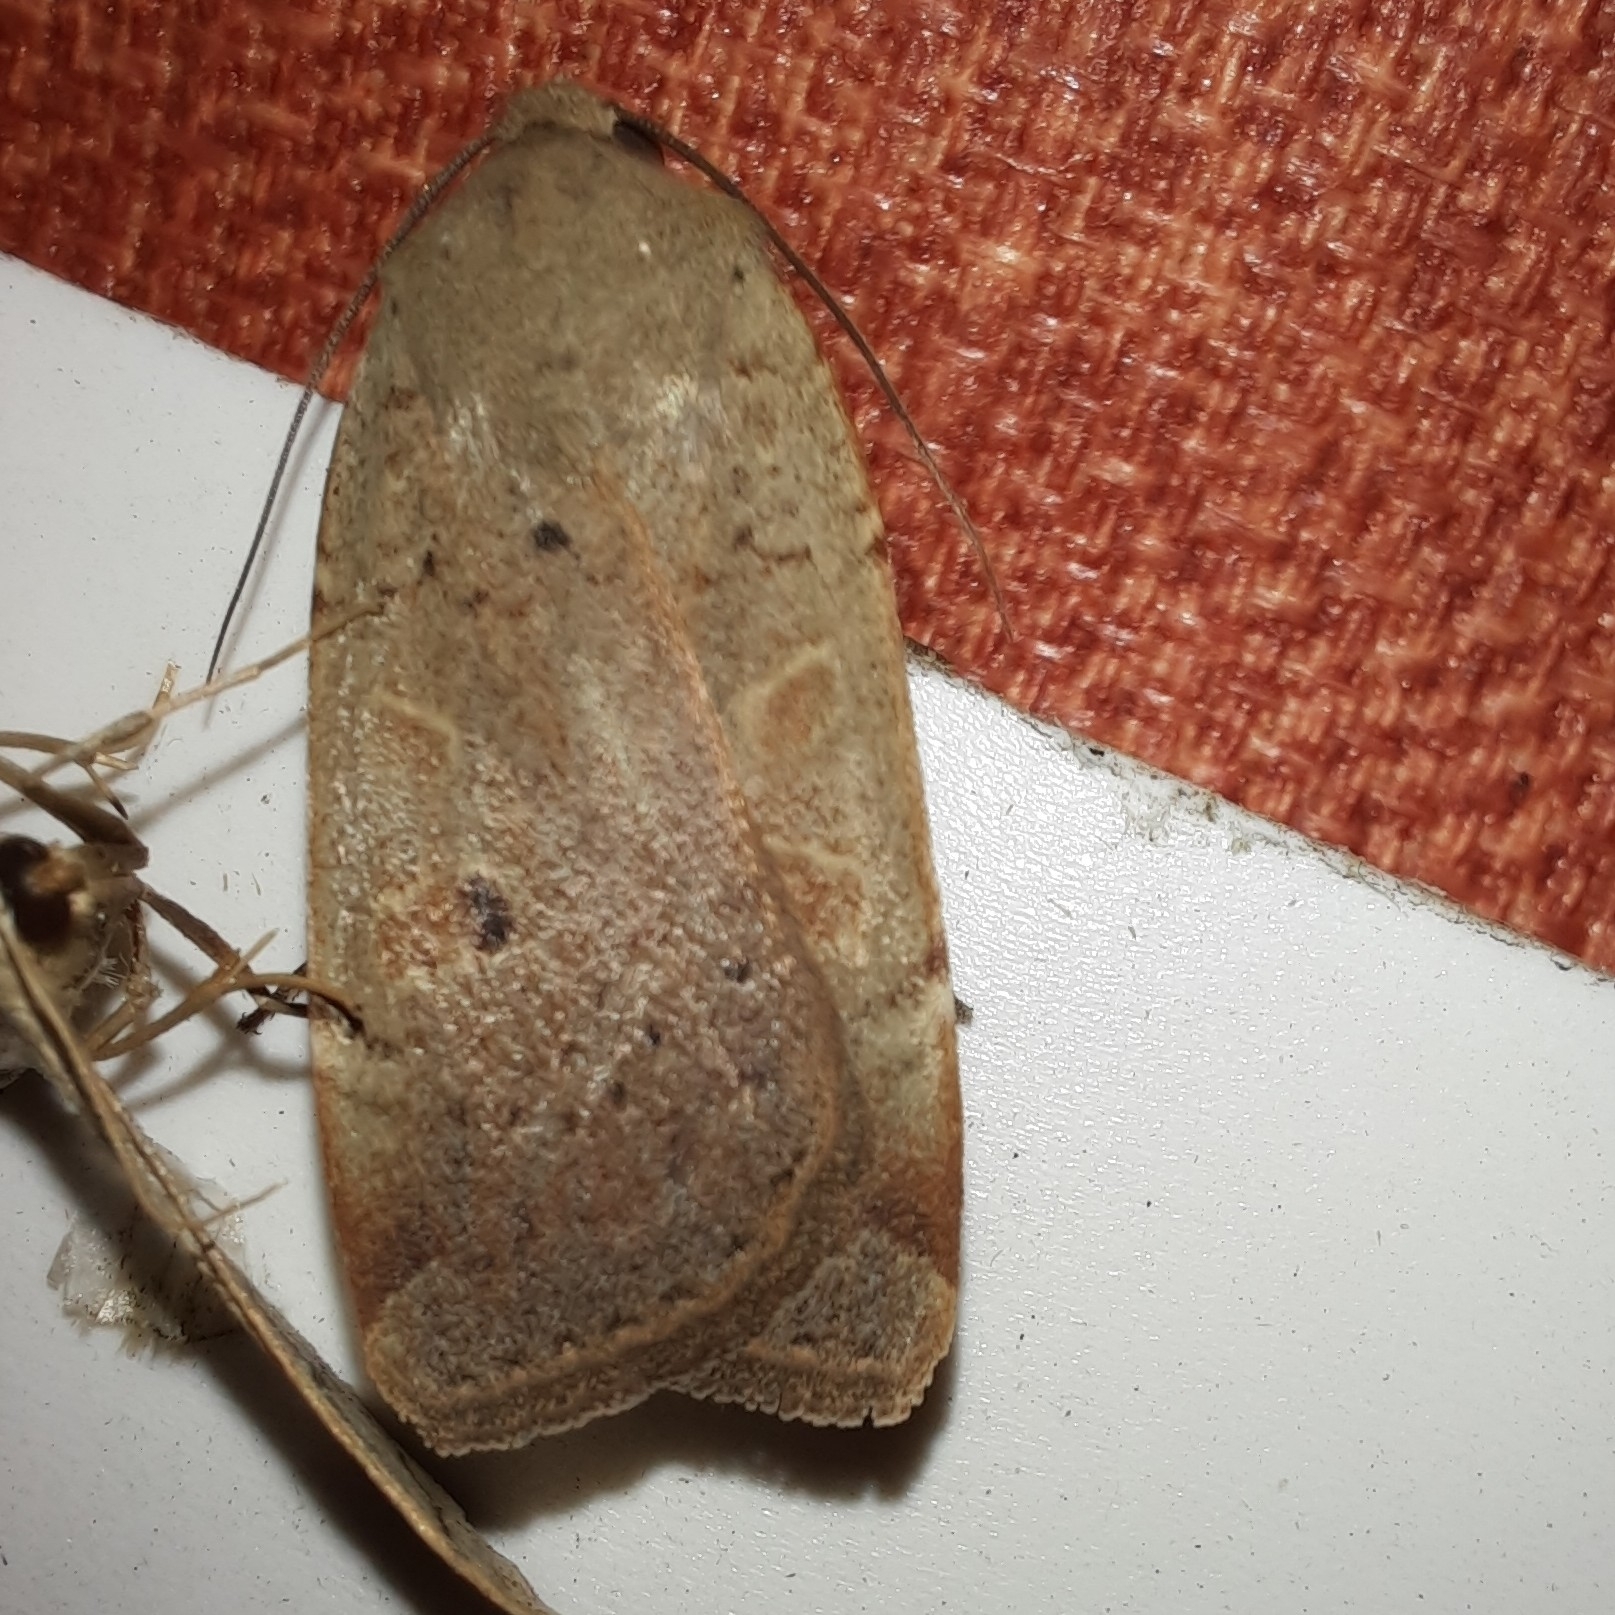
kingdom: Animalia
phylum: Arthropoda
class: Insecta
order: Lepidoptera
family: Noctuidae
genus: Noctua
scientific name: Noctua comes
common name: Lesser yellow underwing
